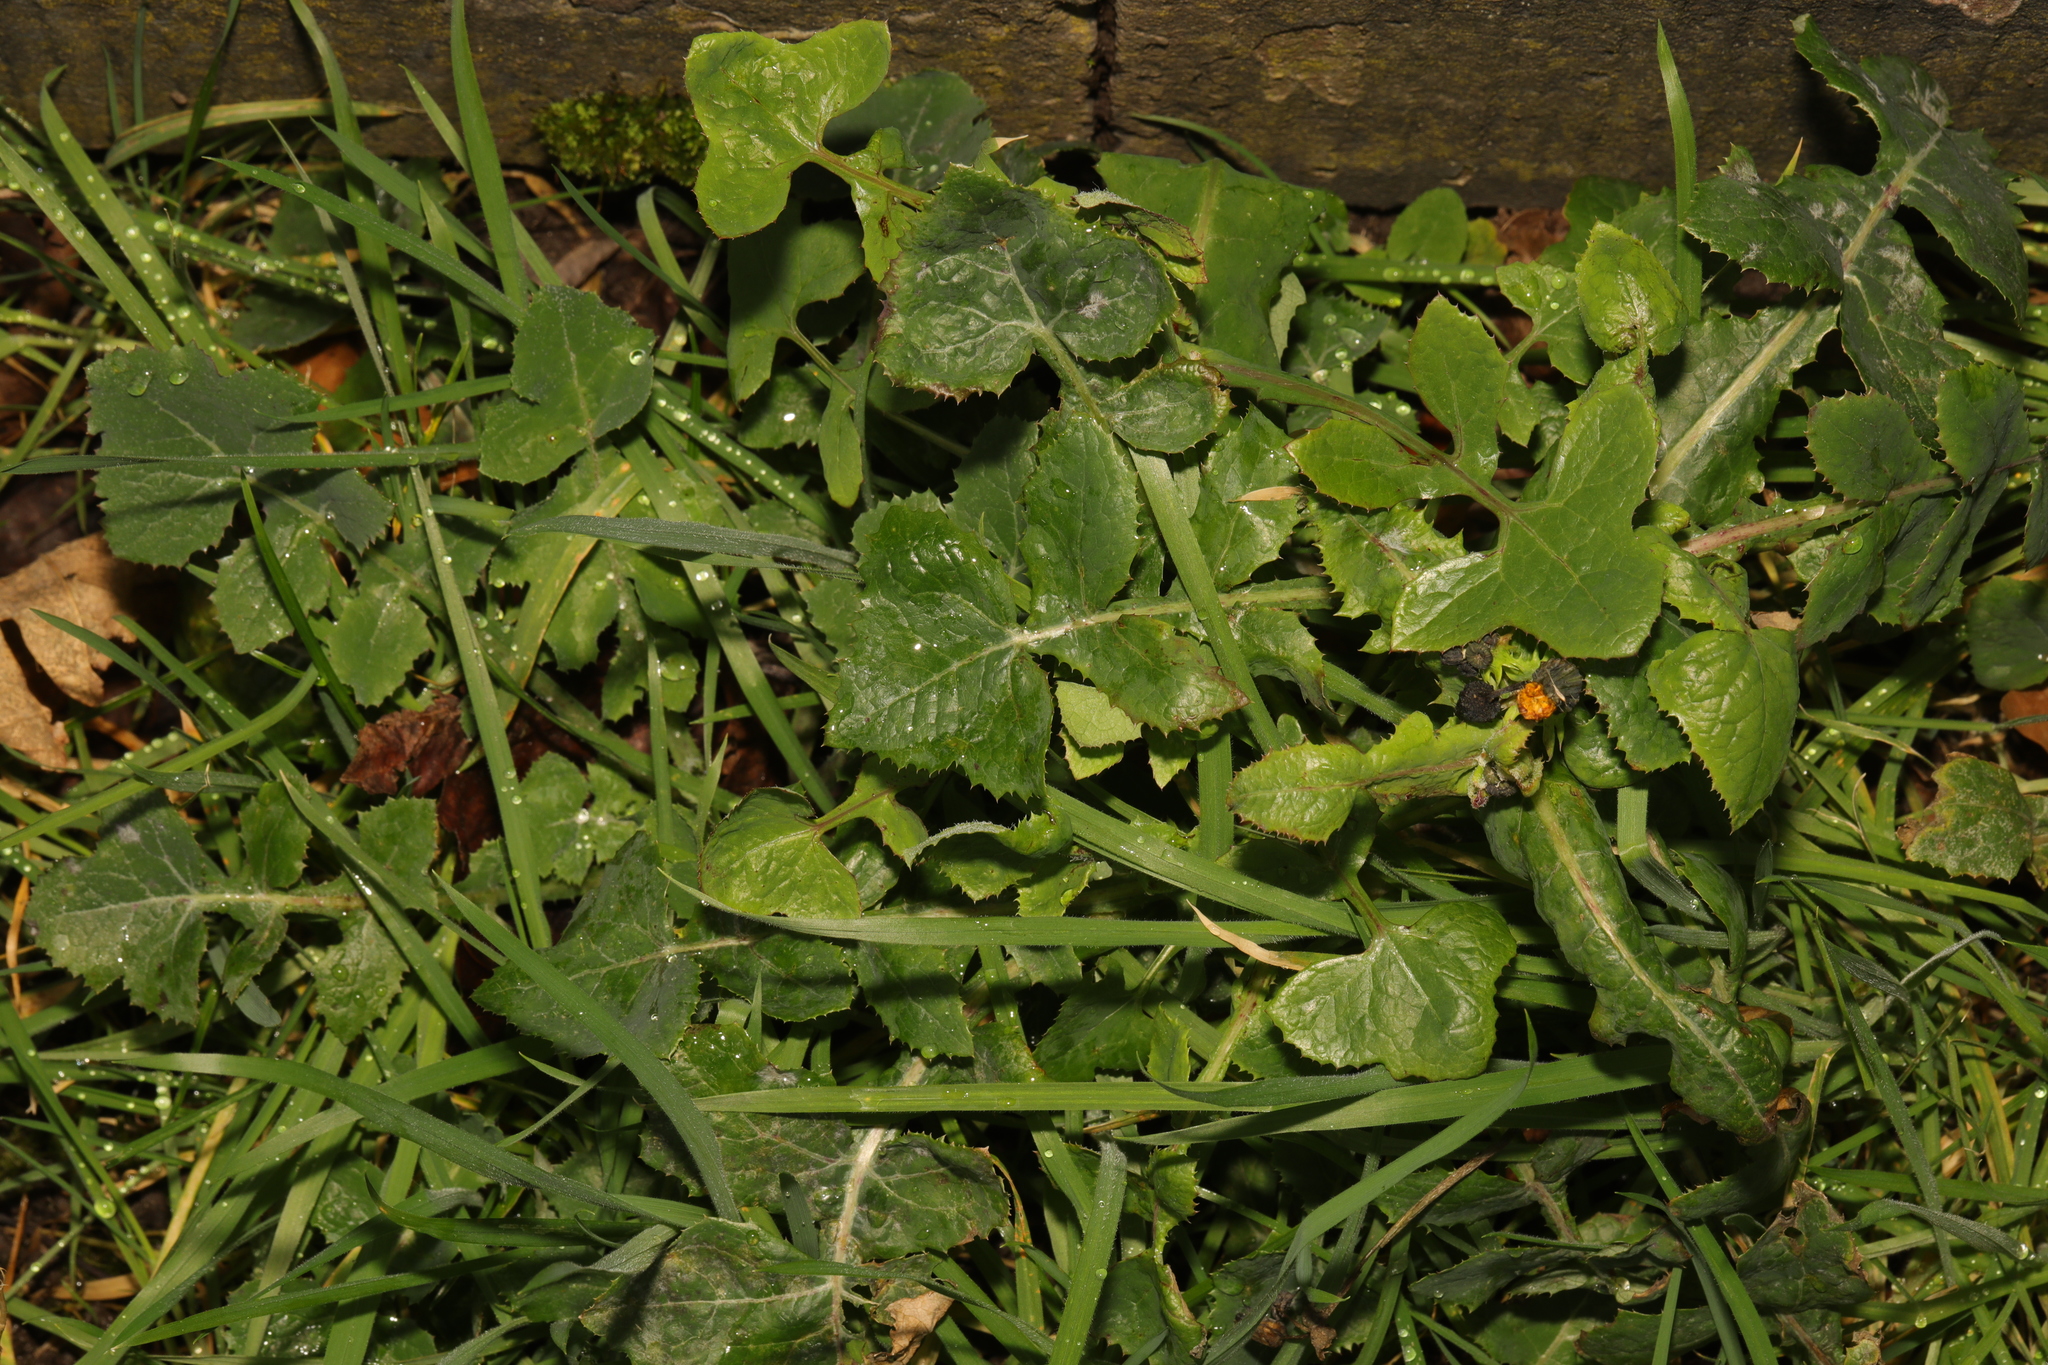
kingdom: Plantae
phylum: Tracheophyta
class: Magnoliopsida
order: Asterales
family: Asteraceae
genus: Sonchus
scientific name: Sonchus oleraceus
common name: Common sowthistle
